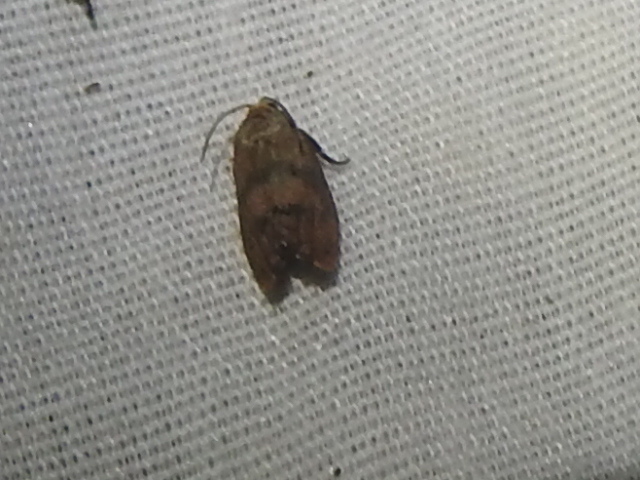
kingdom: Animalia
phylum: Arthropoda
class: Insecta
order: Lepidoptera
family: Tortricidae
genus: Cydia
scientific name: Cydia latiferreana
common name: Filbertworm moth
